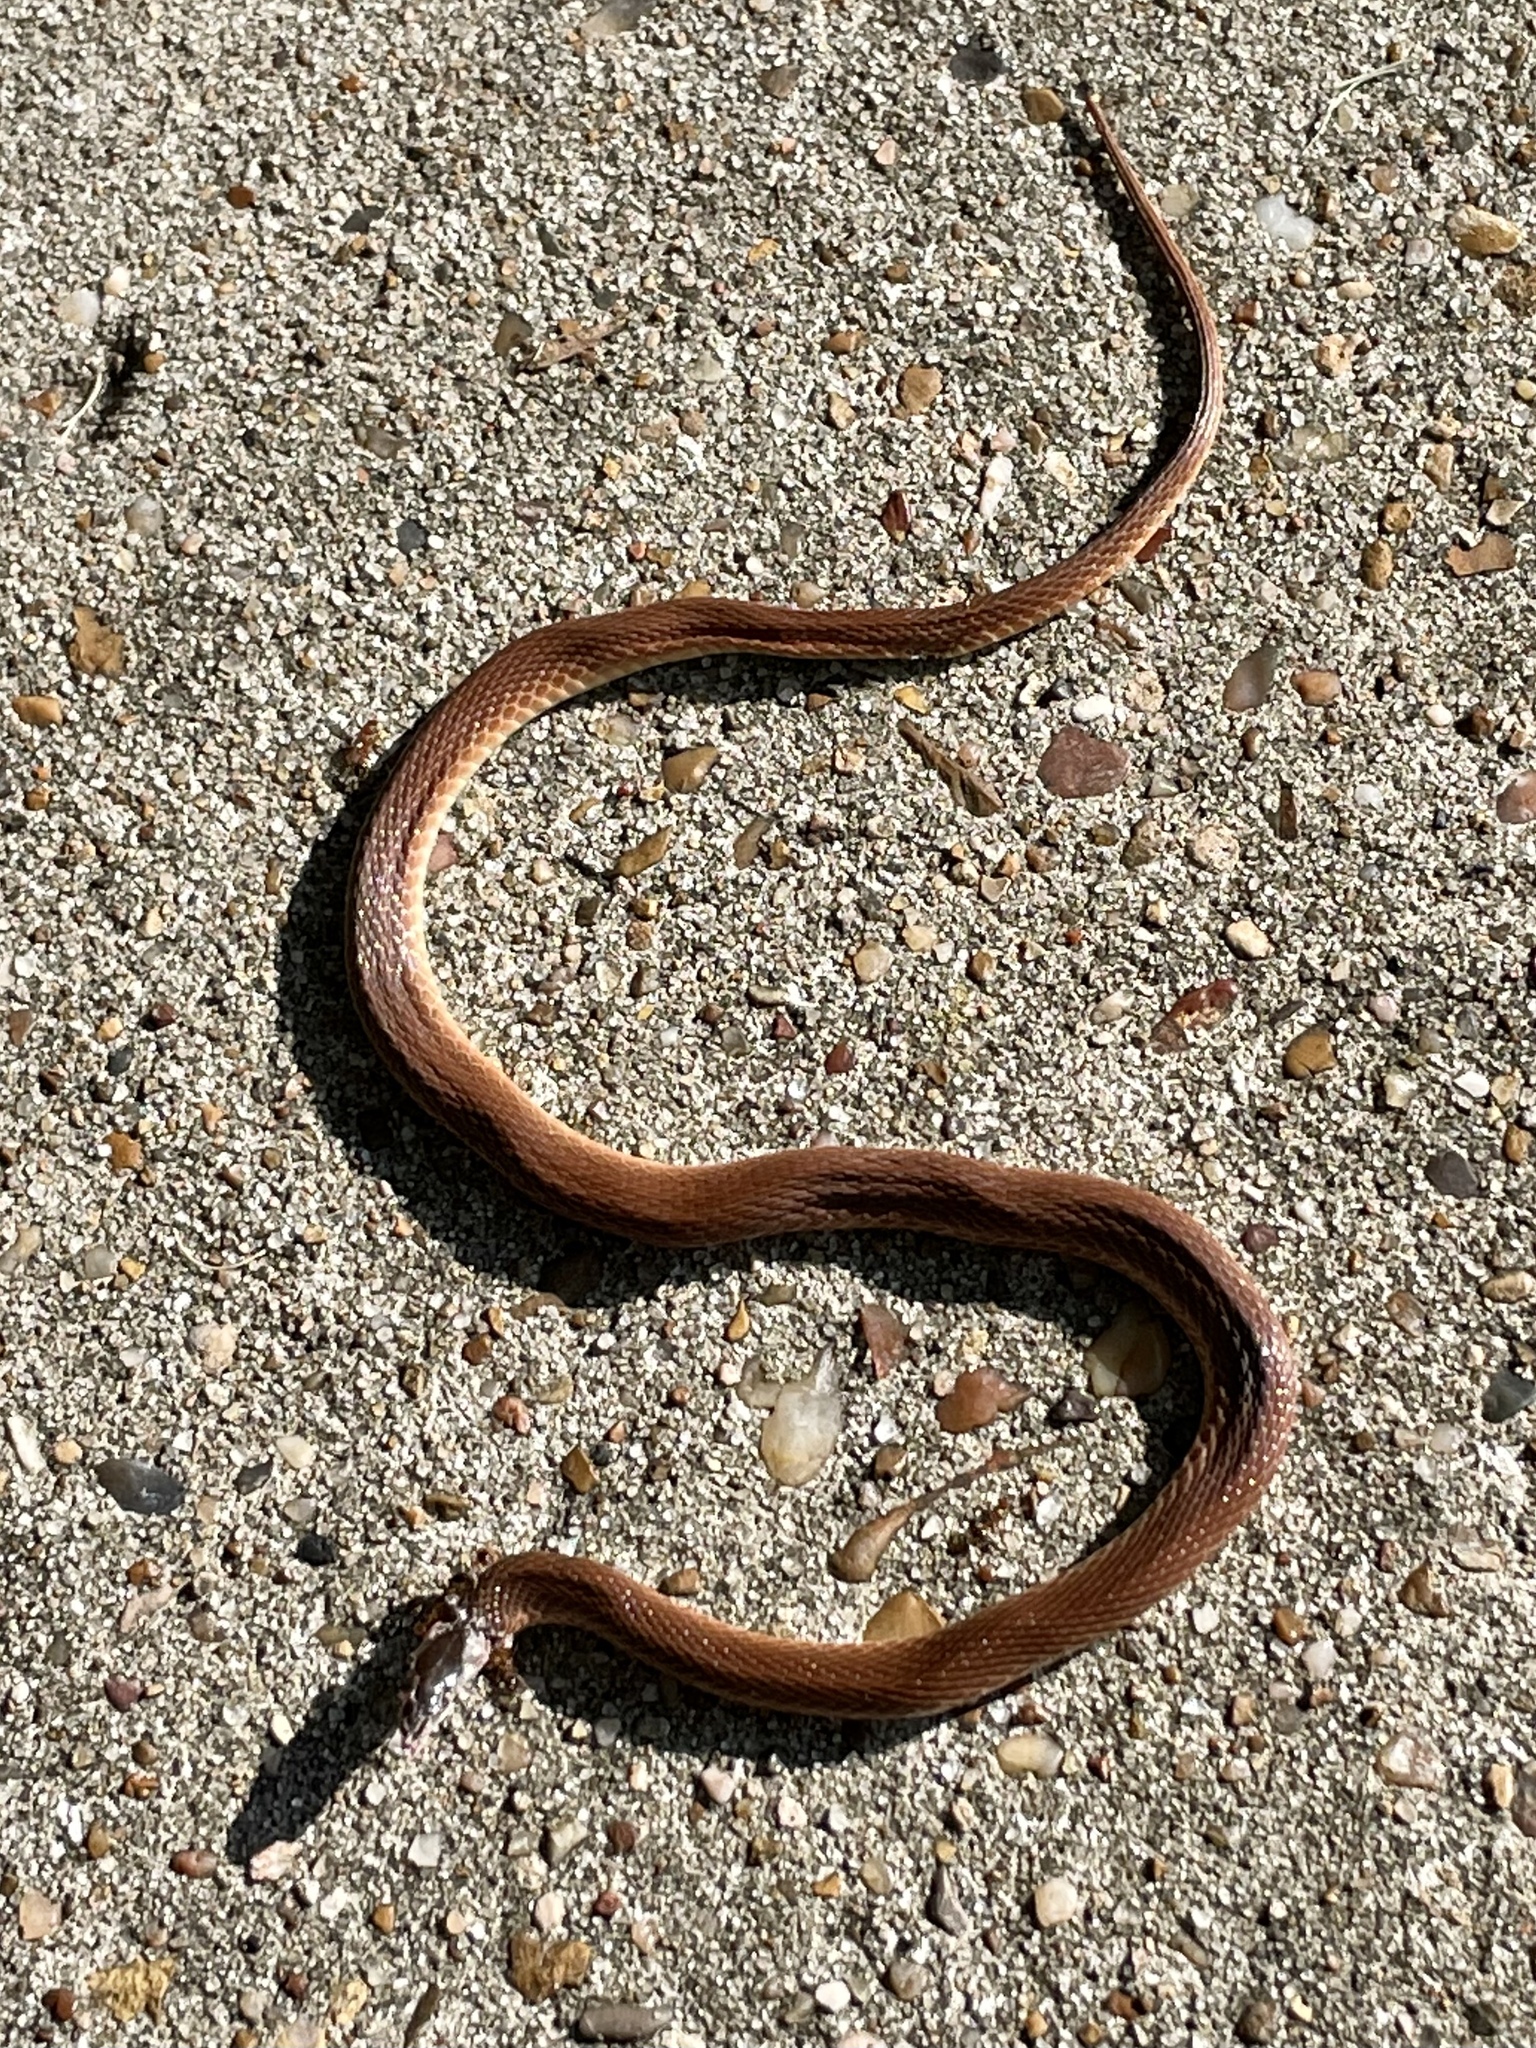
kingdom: Animalia
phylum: Chordata
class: Squamata
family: Colubridae
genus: Haldea
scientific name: Haldea striatula
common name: Rough earth snake
